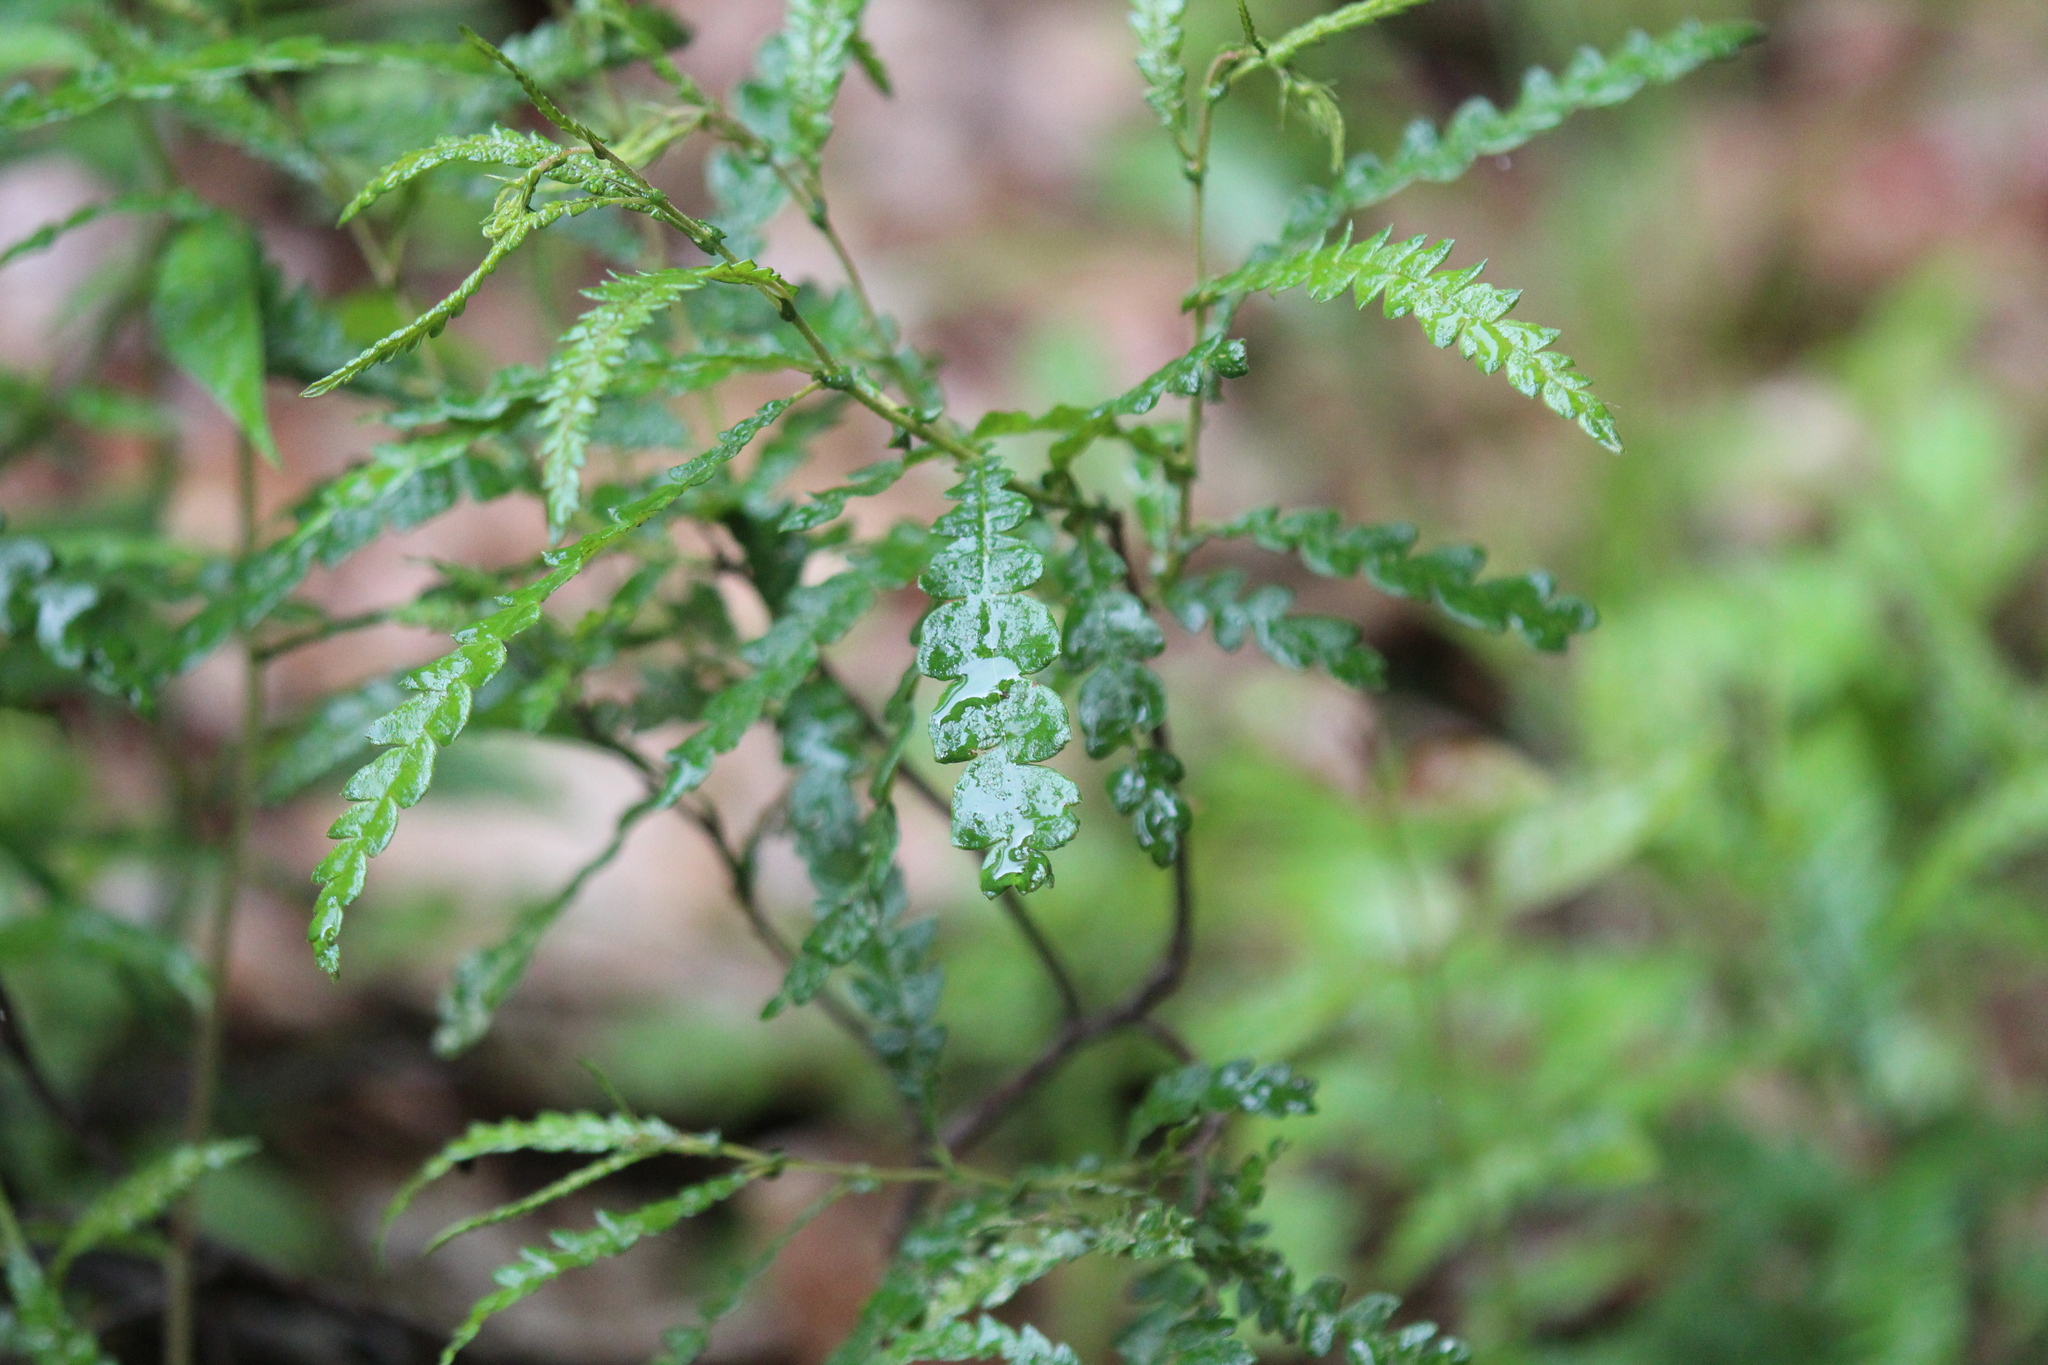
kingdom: Plantae
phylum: Tracheophyta
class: Magnoliopsida
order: Fagales
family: Myricaceae
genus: Comptonia
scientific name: Comptonia peregrina
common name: Sweet-fern
